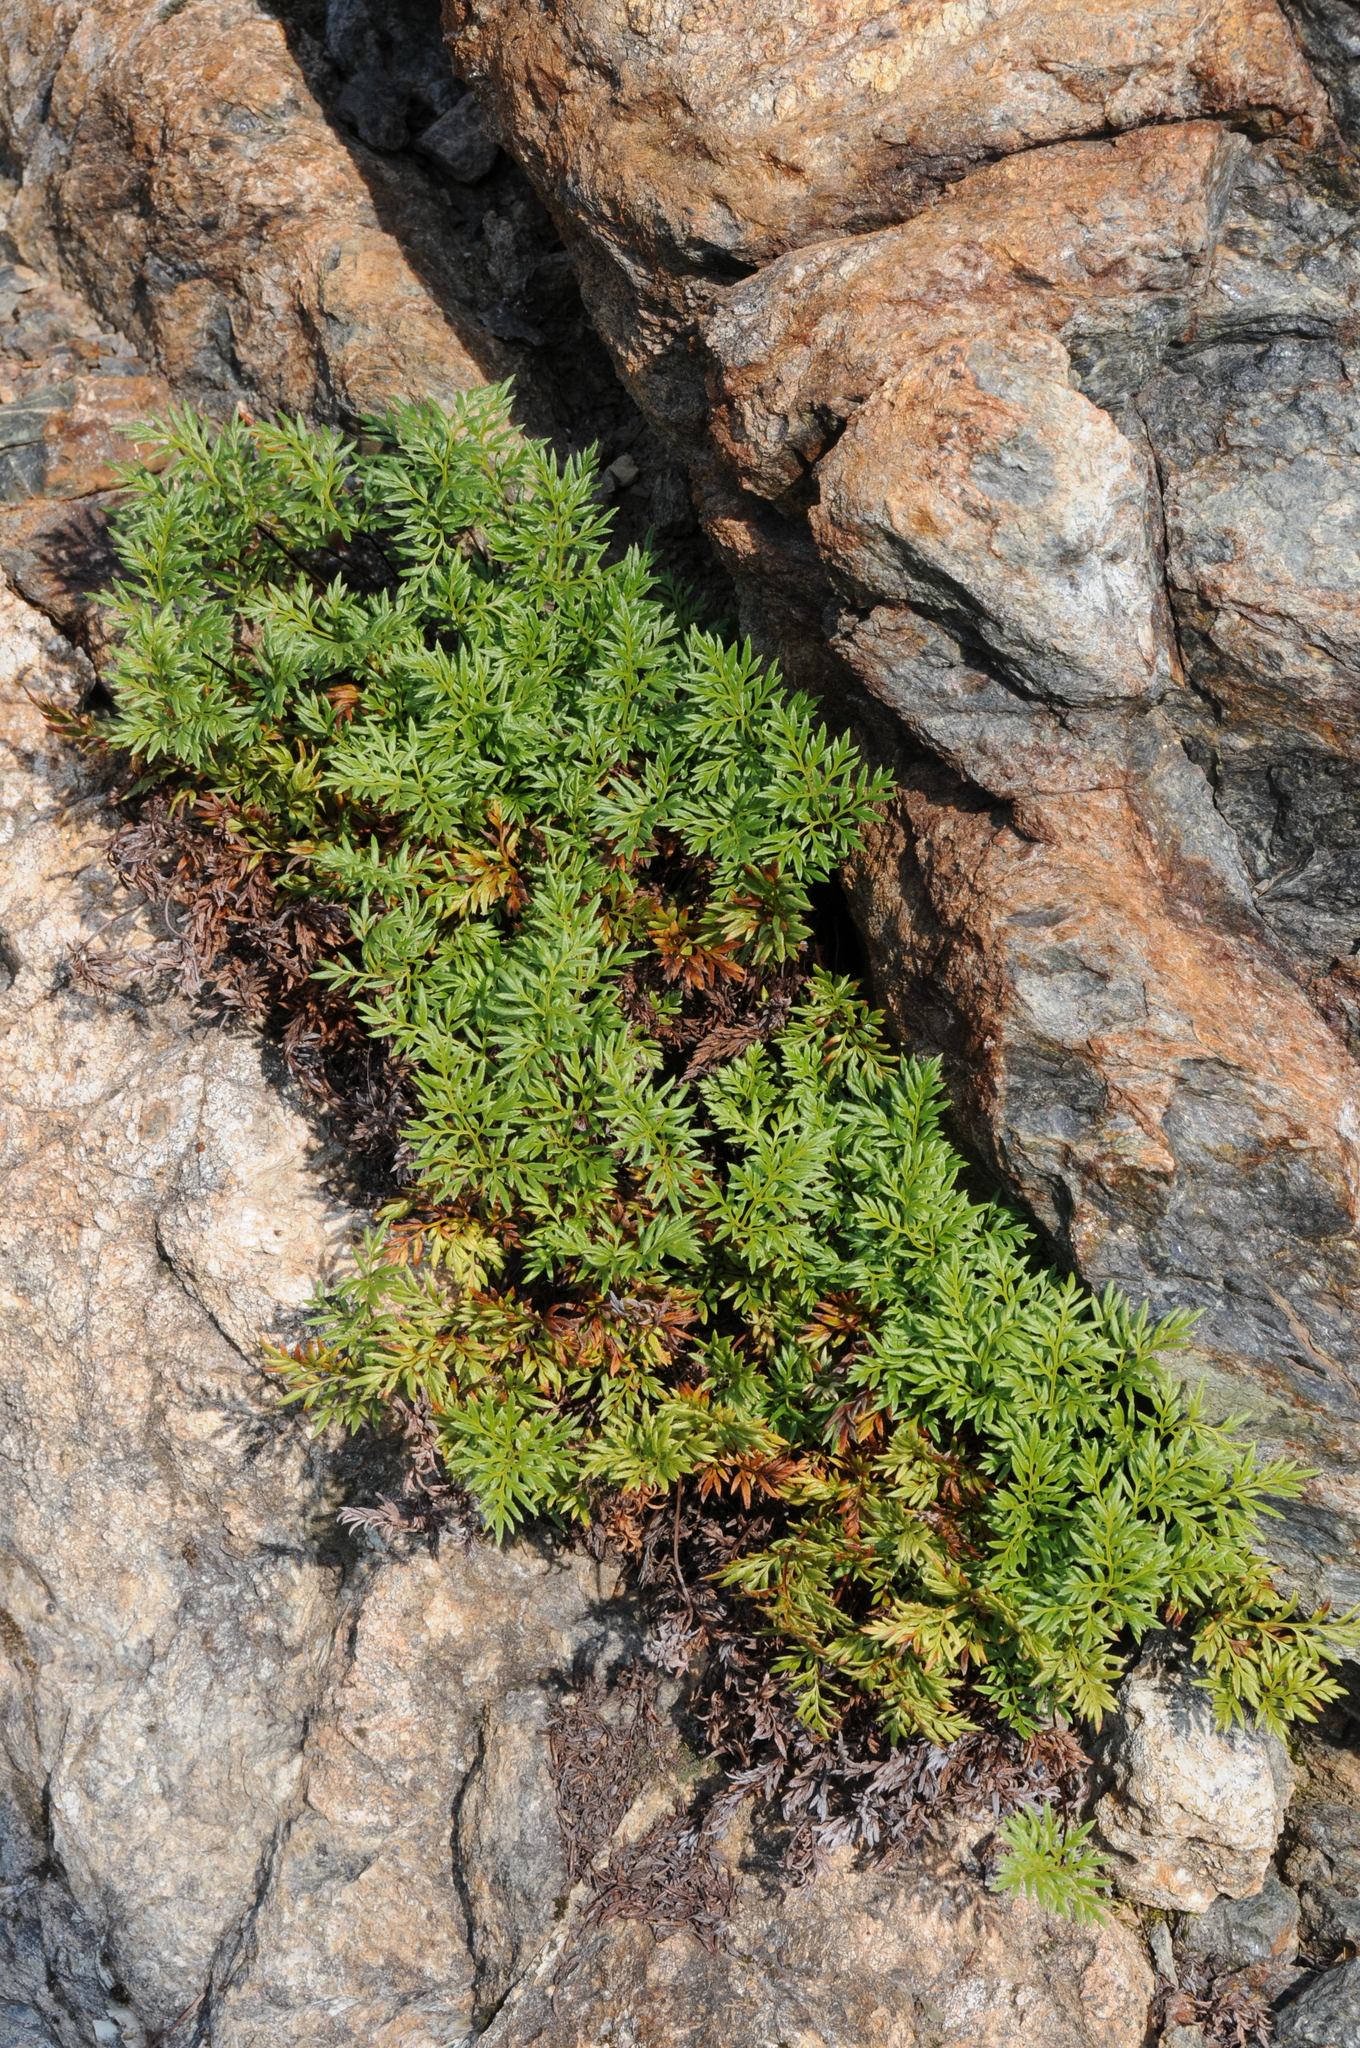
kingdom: Plantae
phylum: Tracheophyta
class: Polypodiopsida
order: Polypodiales
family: Pteridaceae
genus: Aspidotis
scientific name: Aspidotis densa
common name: Indian's dream
